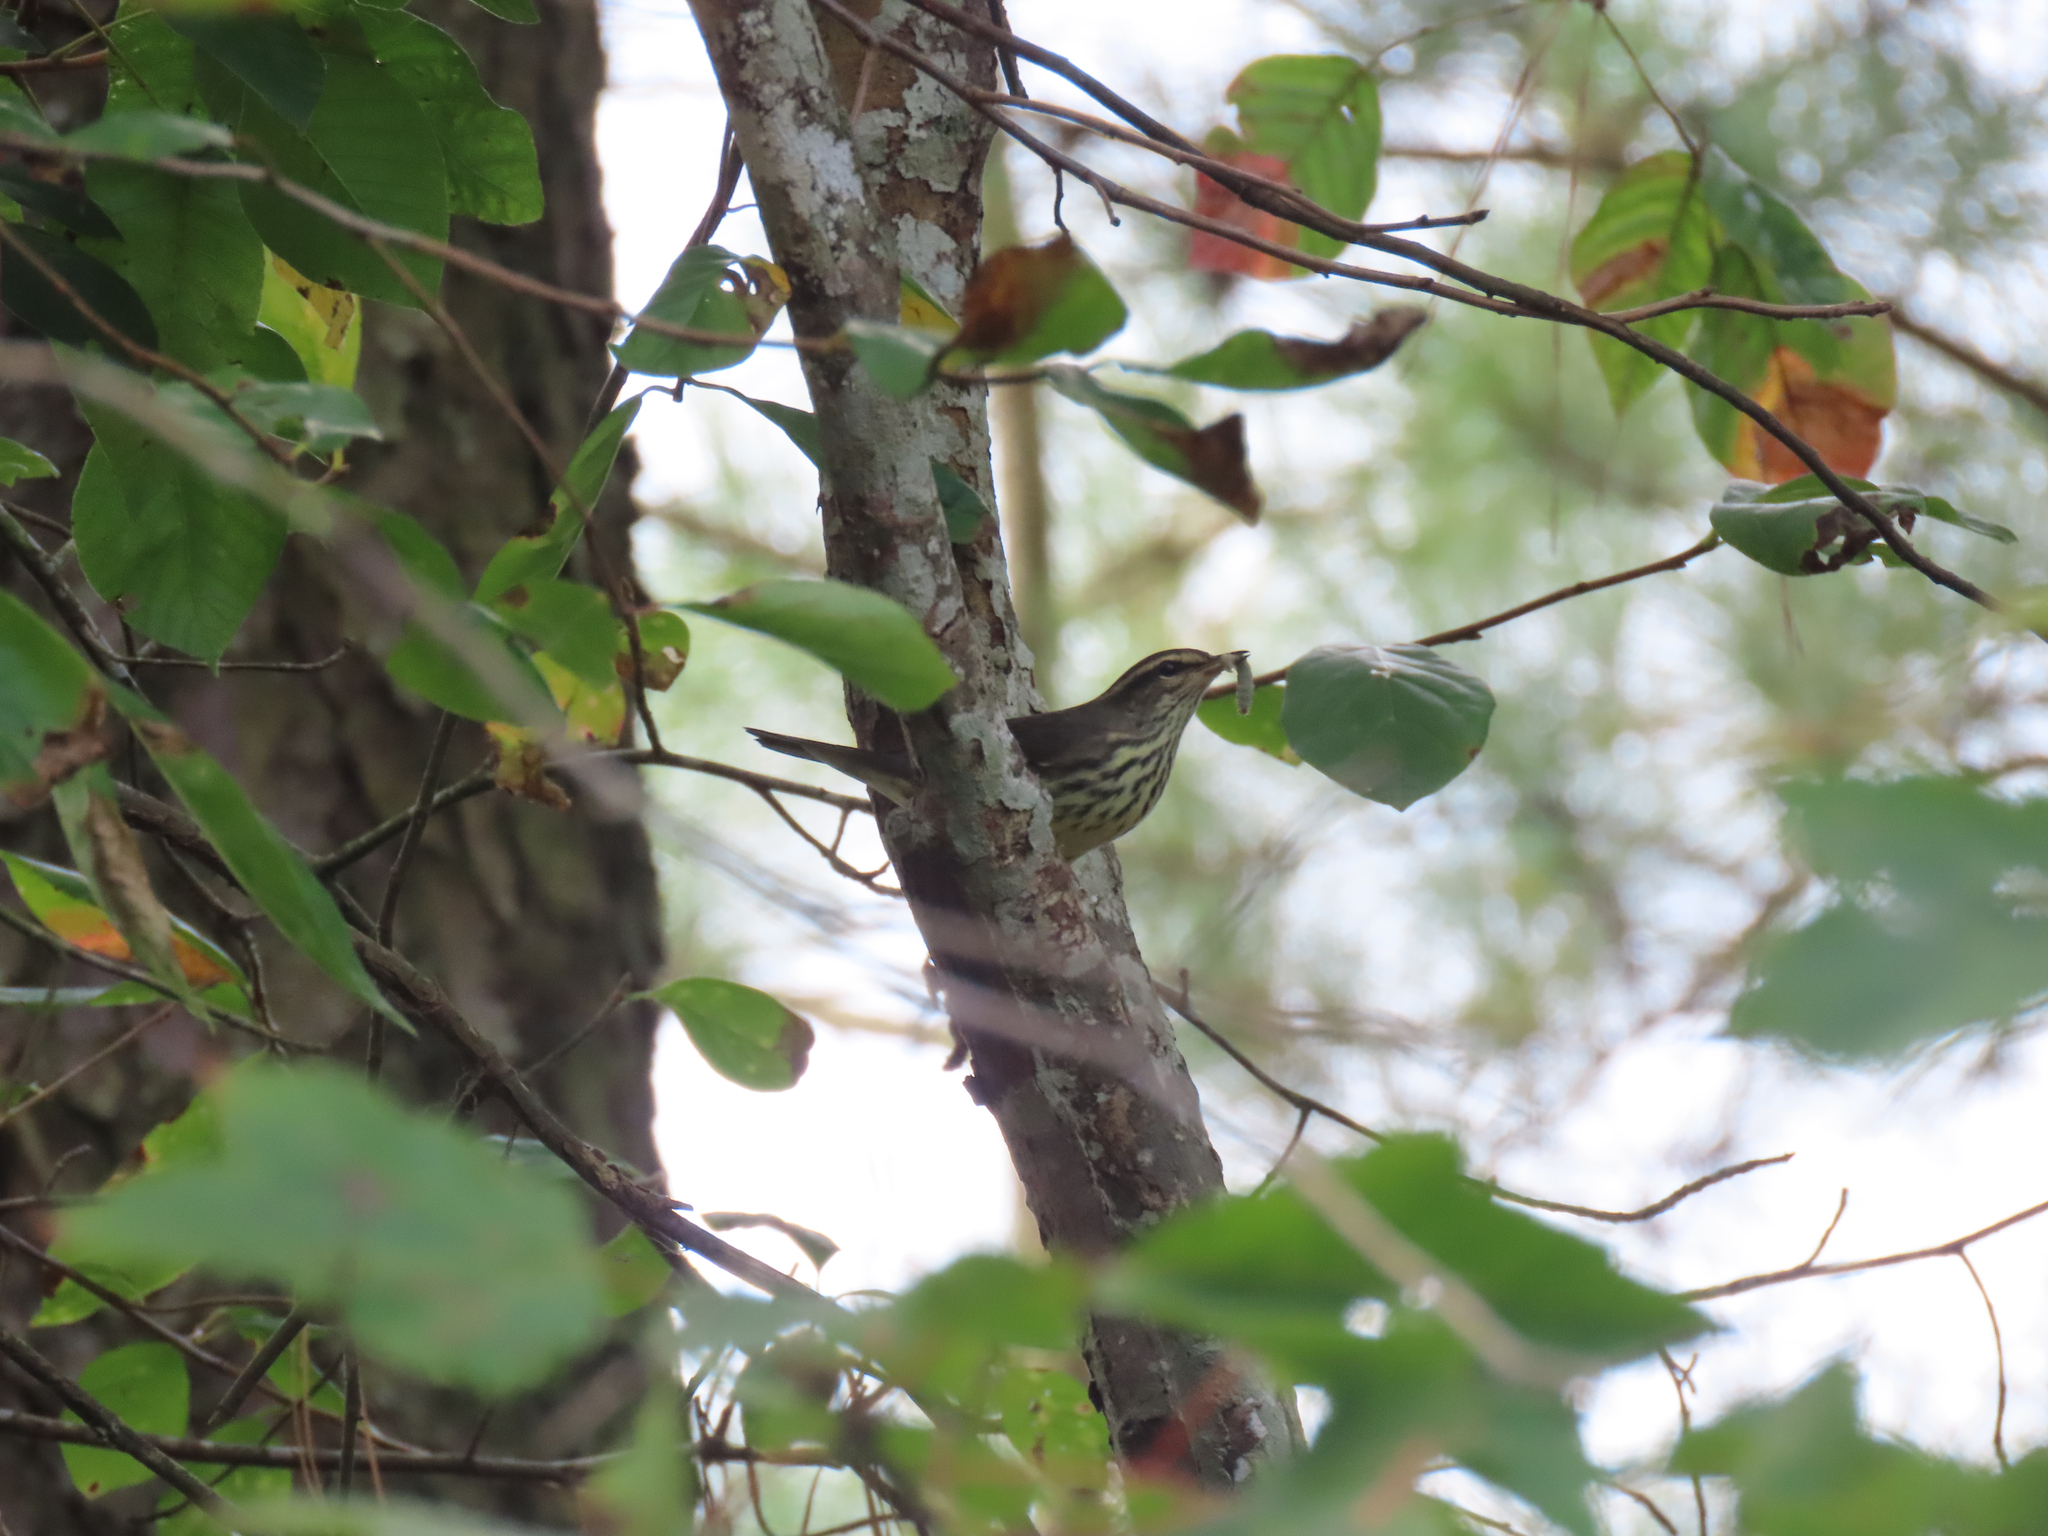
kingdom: Animalia
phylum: Chordata
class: Aves
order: Passeriformes
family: Parulidae
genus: Parkesia
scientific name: Parkesia noveboracensis
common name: Northern waterthrush
